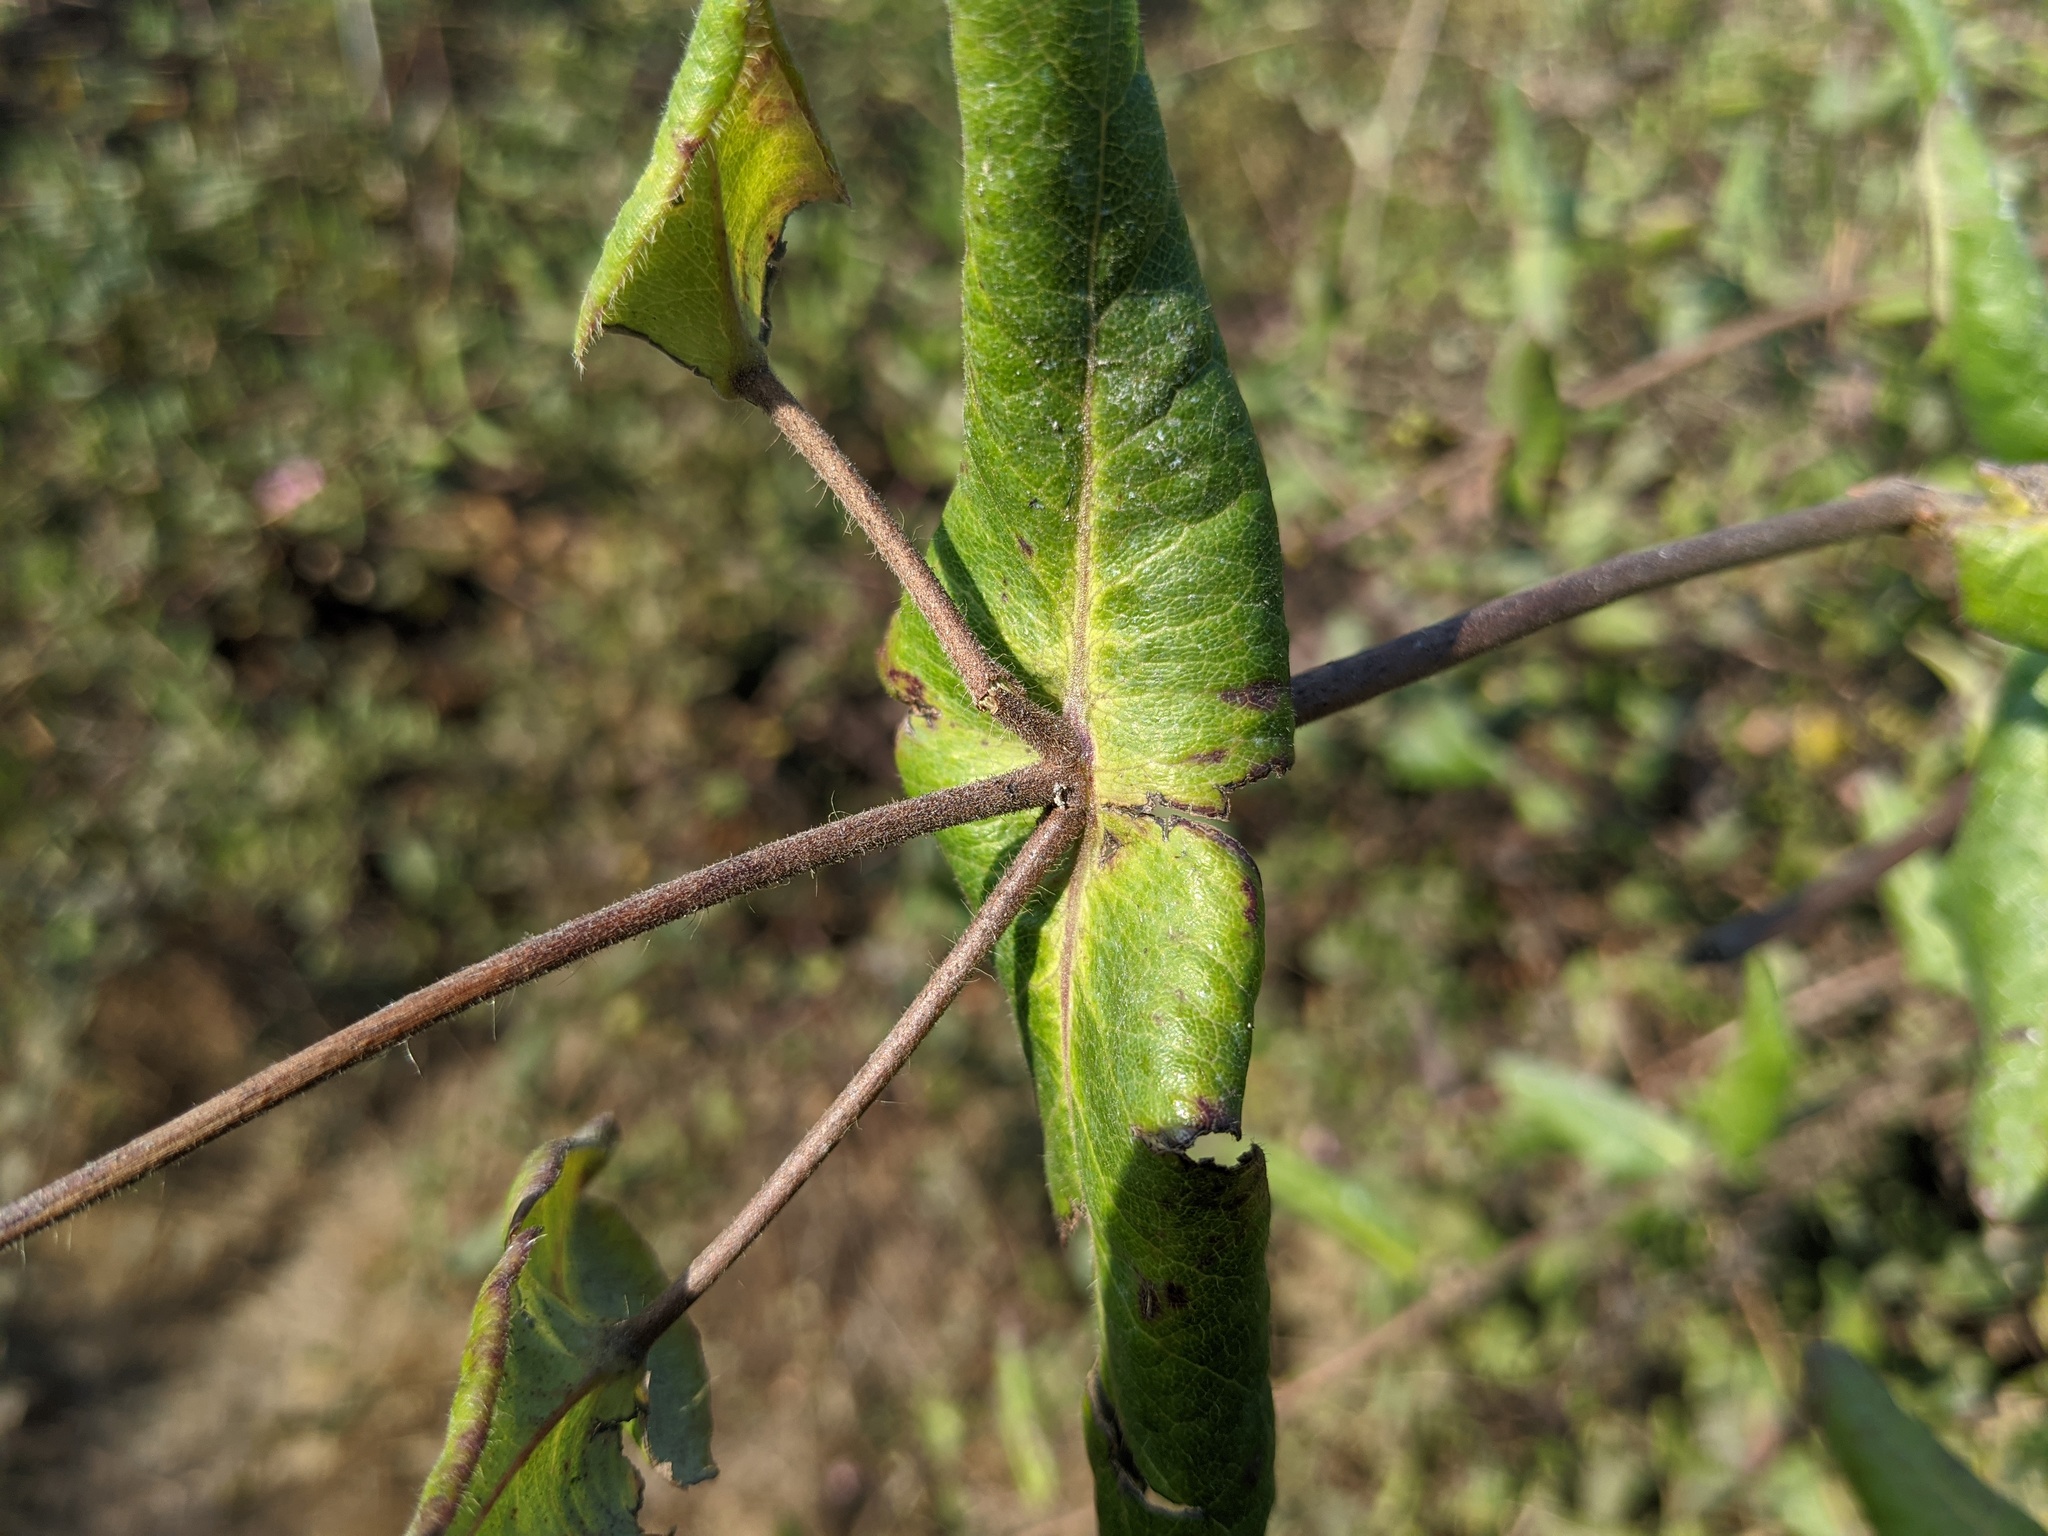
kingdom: Plantae
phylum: Tracheophyta
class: Magnoliopsida
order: Dipsacales
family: Caprifoliaceae
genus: Lonicera
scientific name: Lonicera hispidula
